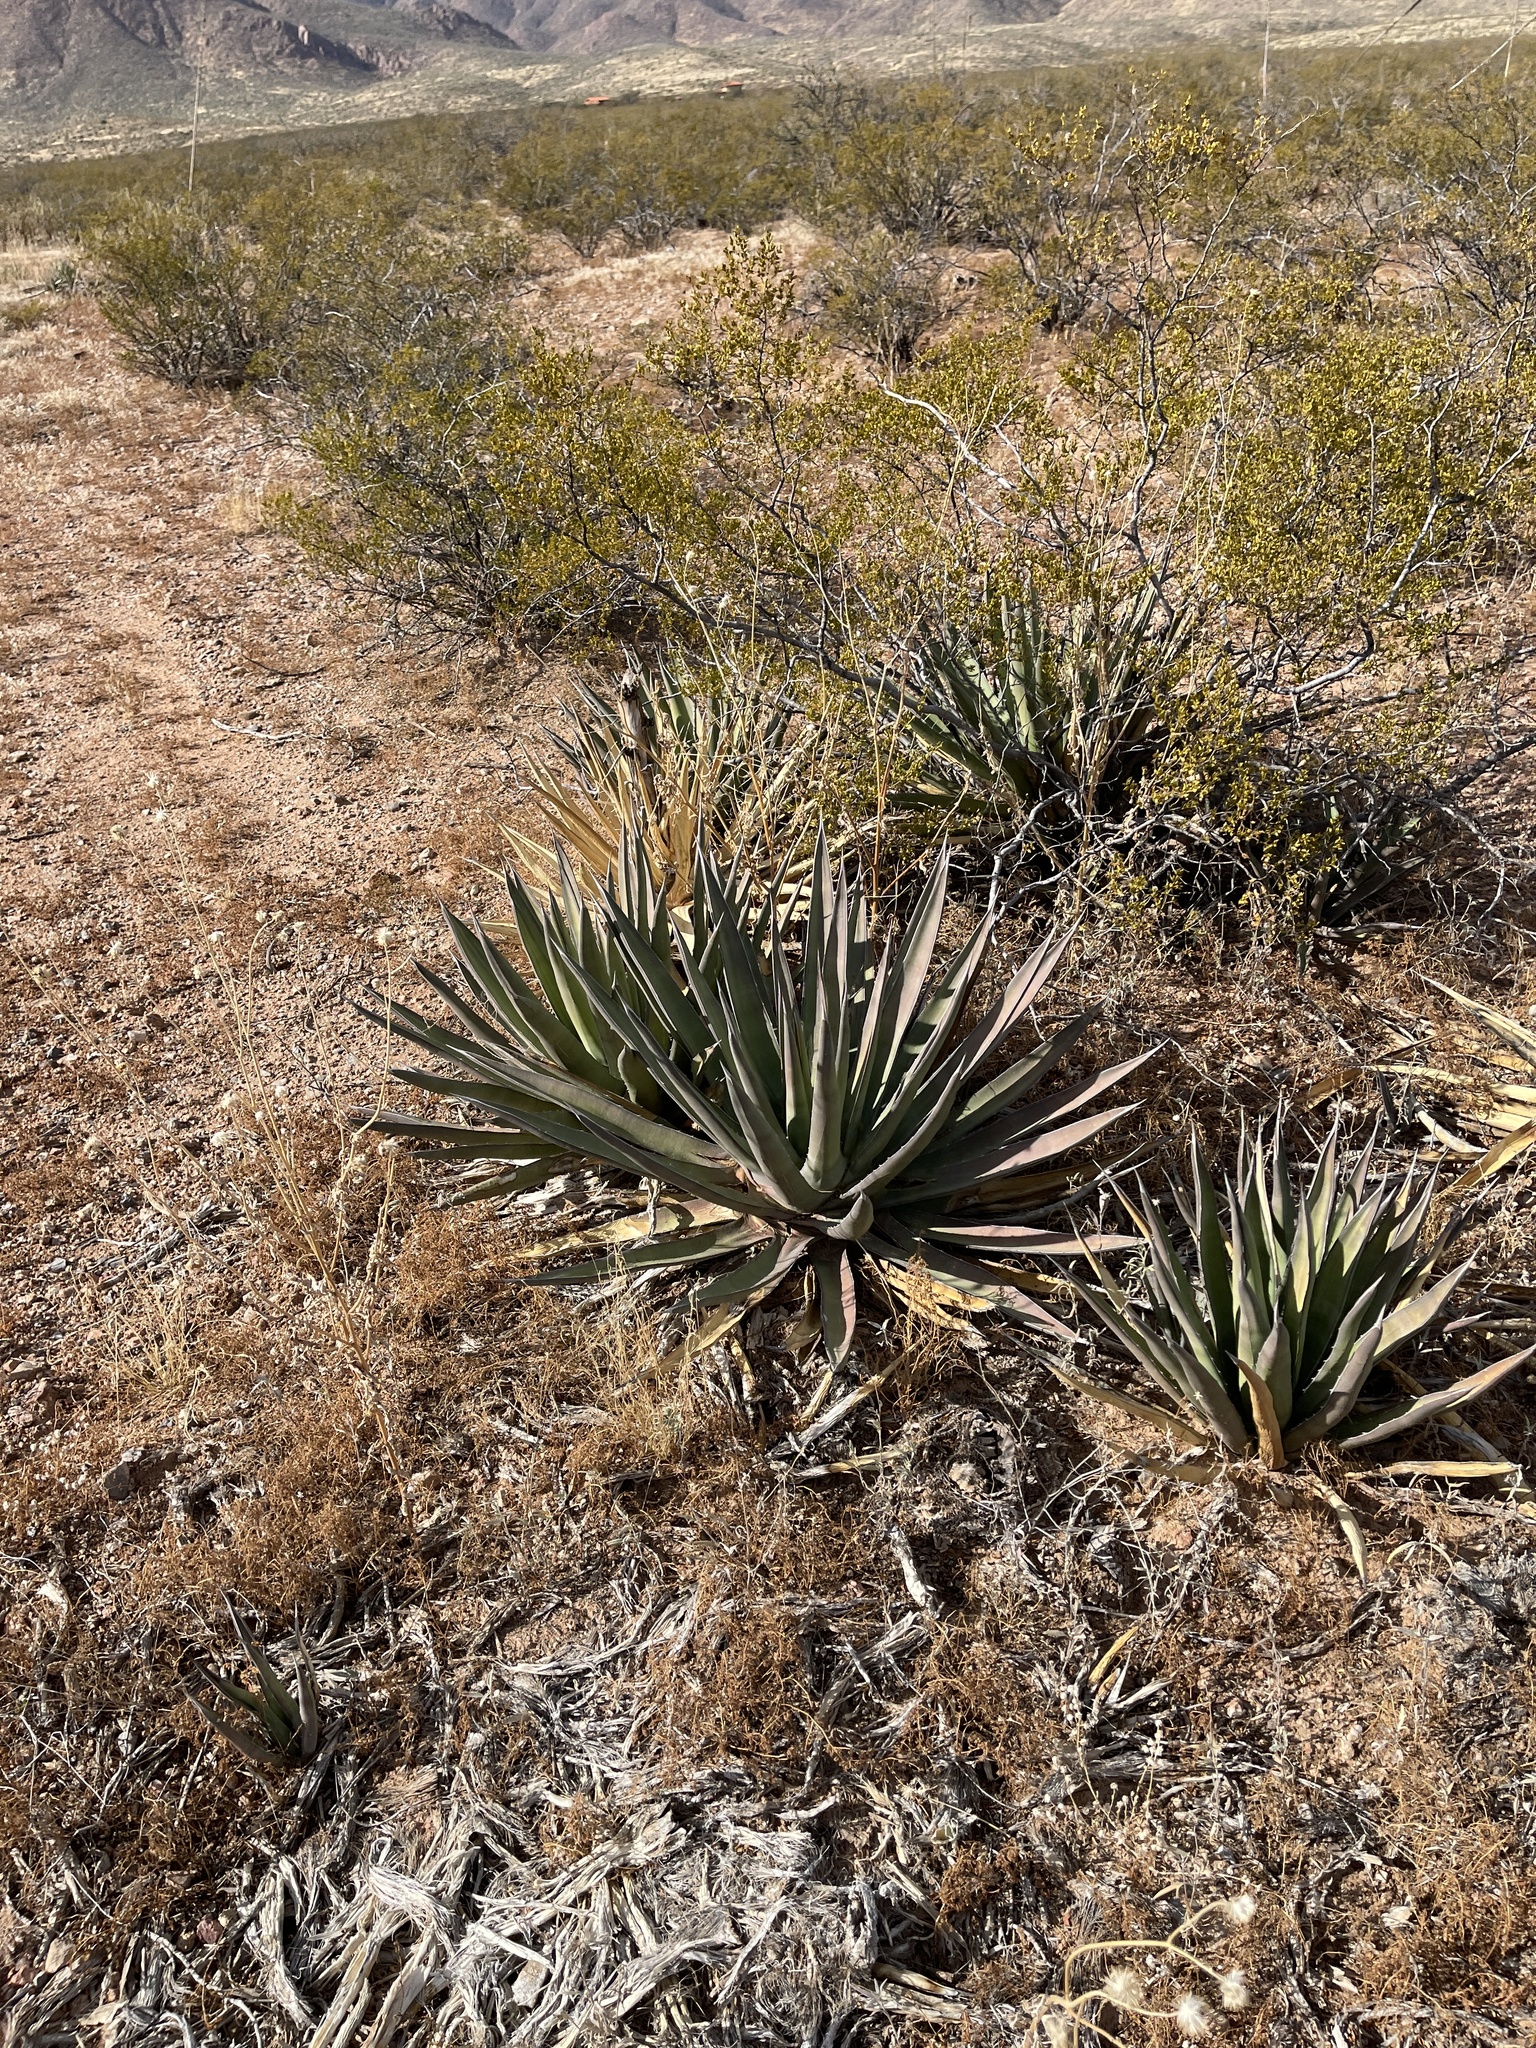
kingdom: Plantae
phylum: Tracheophyta
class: Liliopsida
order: Asparagales
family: Asparagaceae
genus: Agave
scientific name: Agave lechuguilla
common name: Lecheguilla agave
